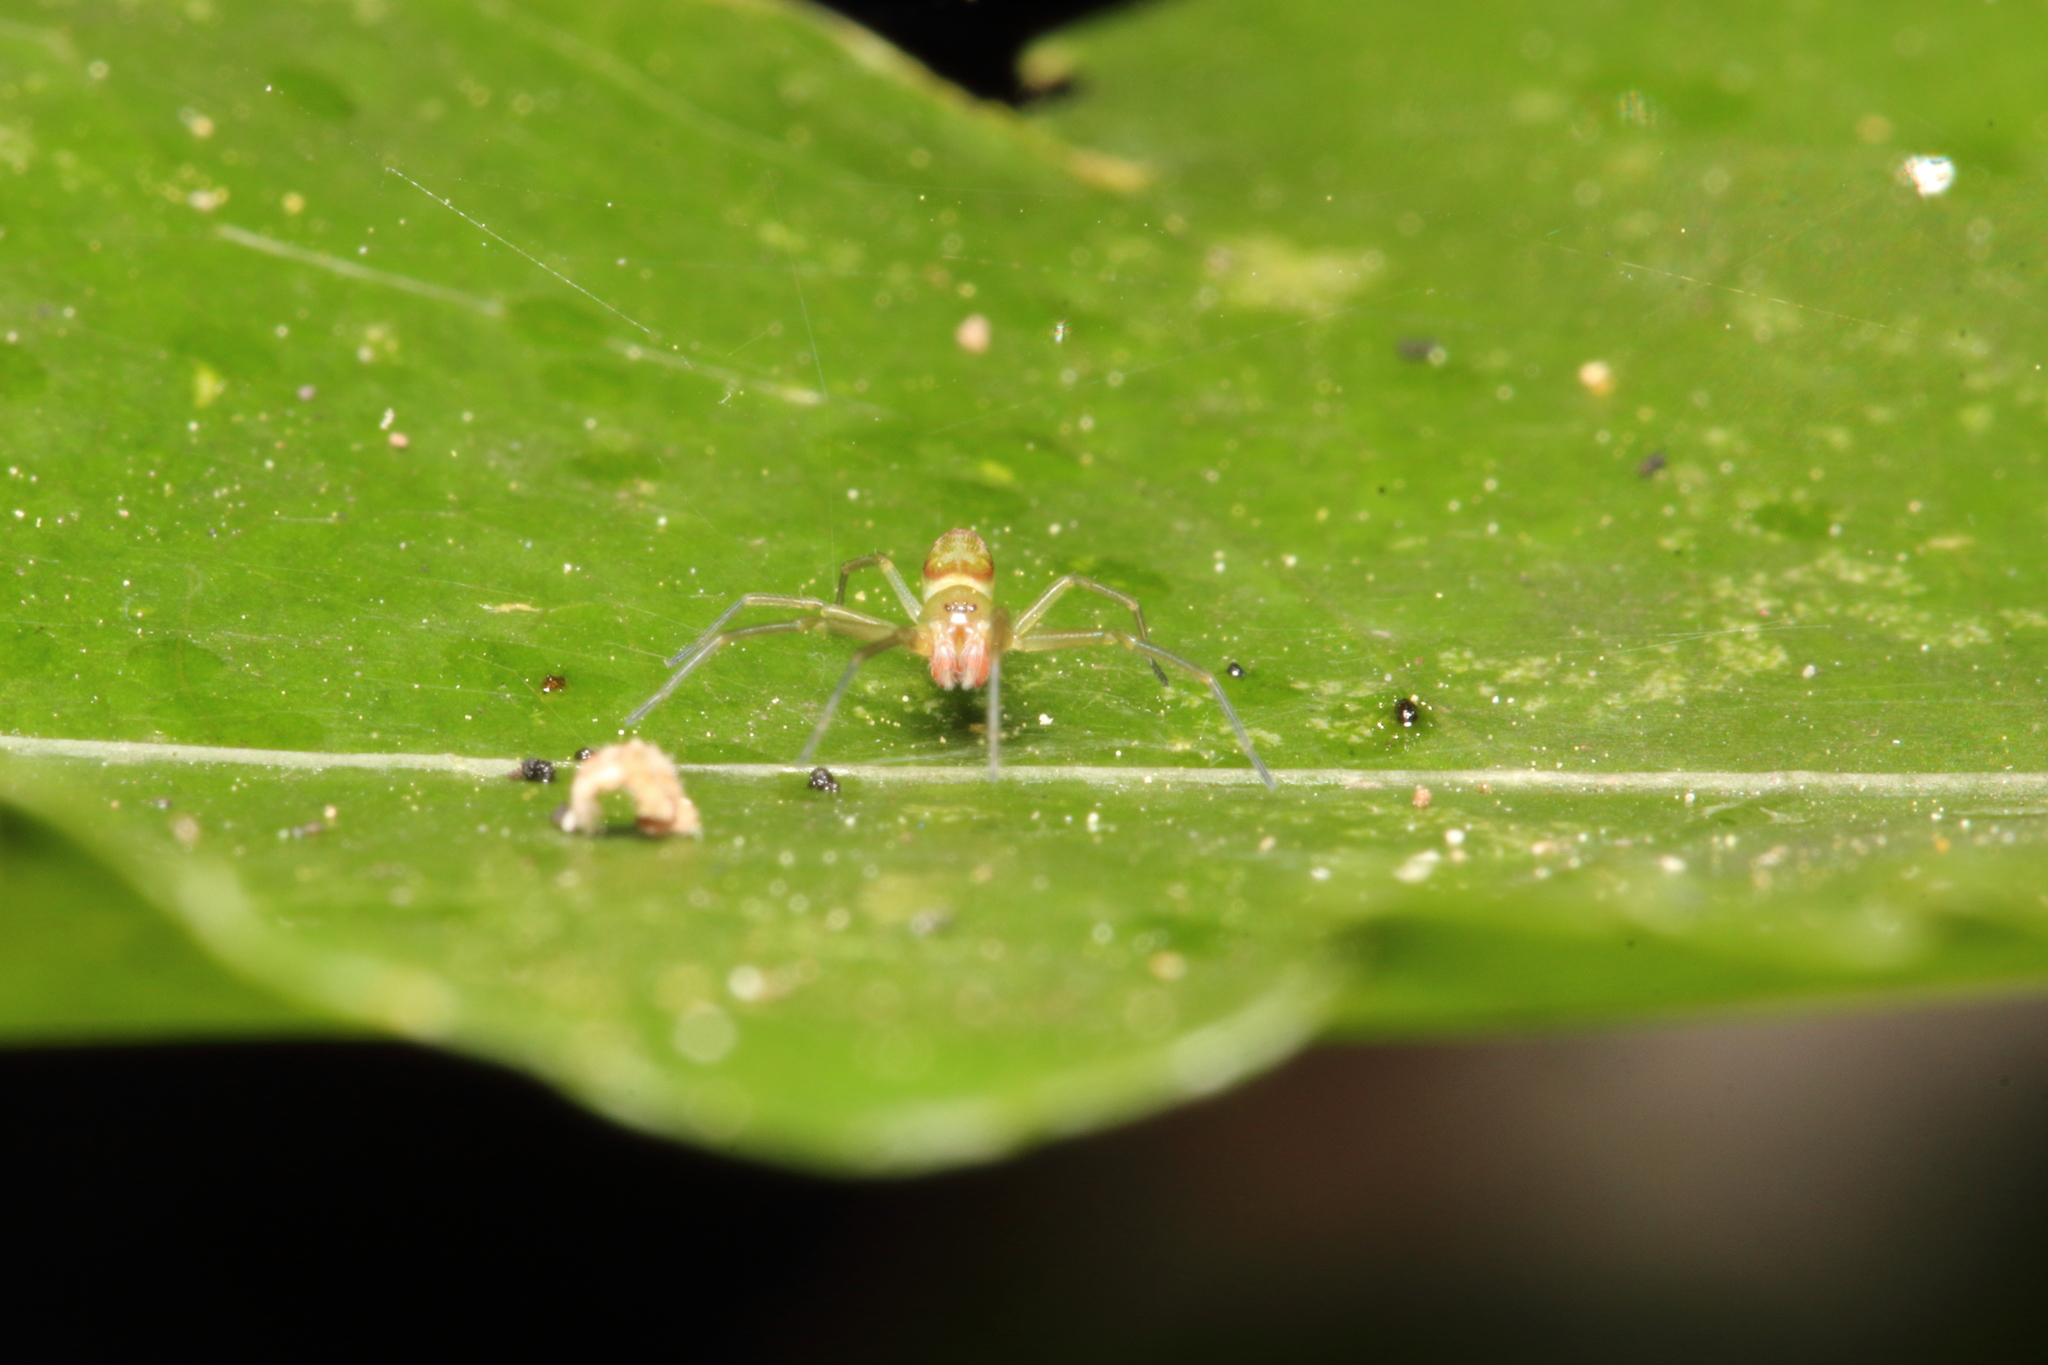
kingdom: Animalia
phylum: Arthropoda
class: Arachnida
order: Araneae
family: Dictynidae
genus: Paradictyna
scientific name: Paradictyna ilamia
